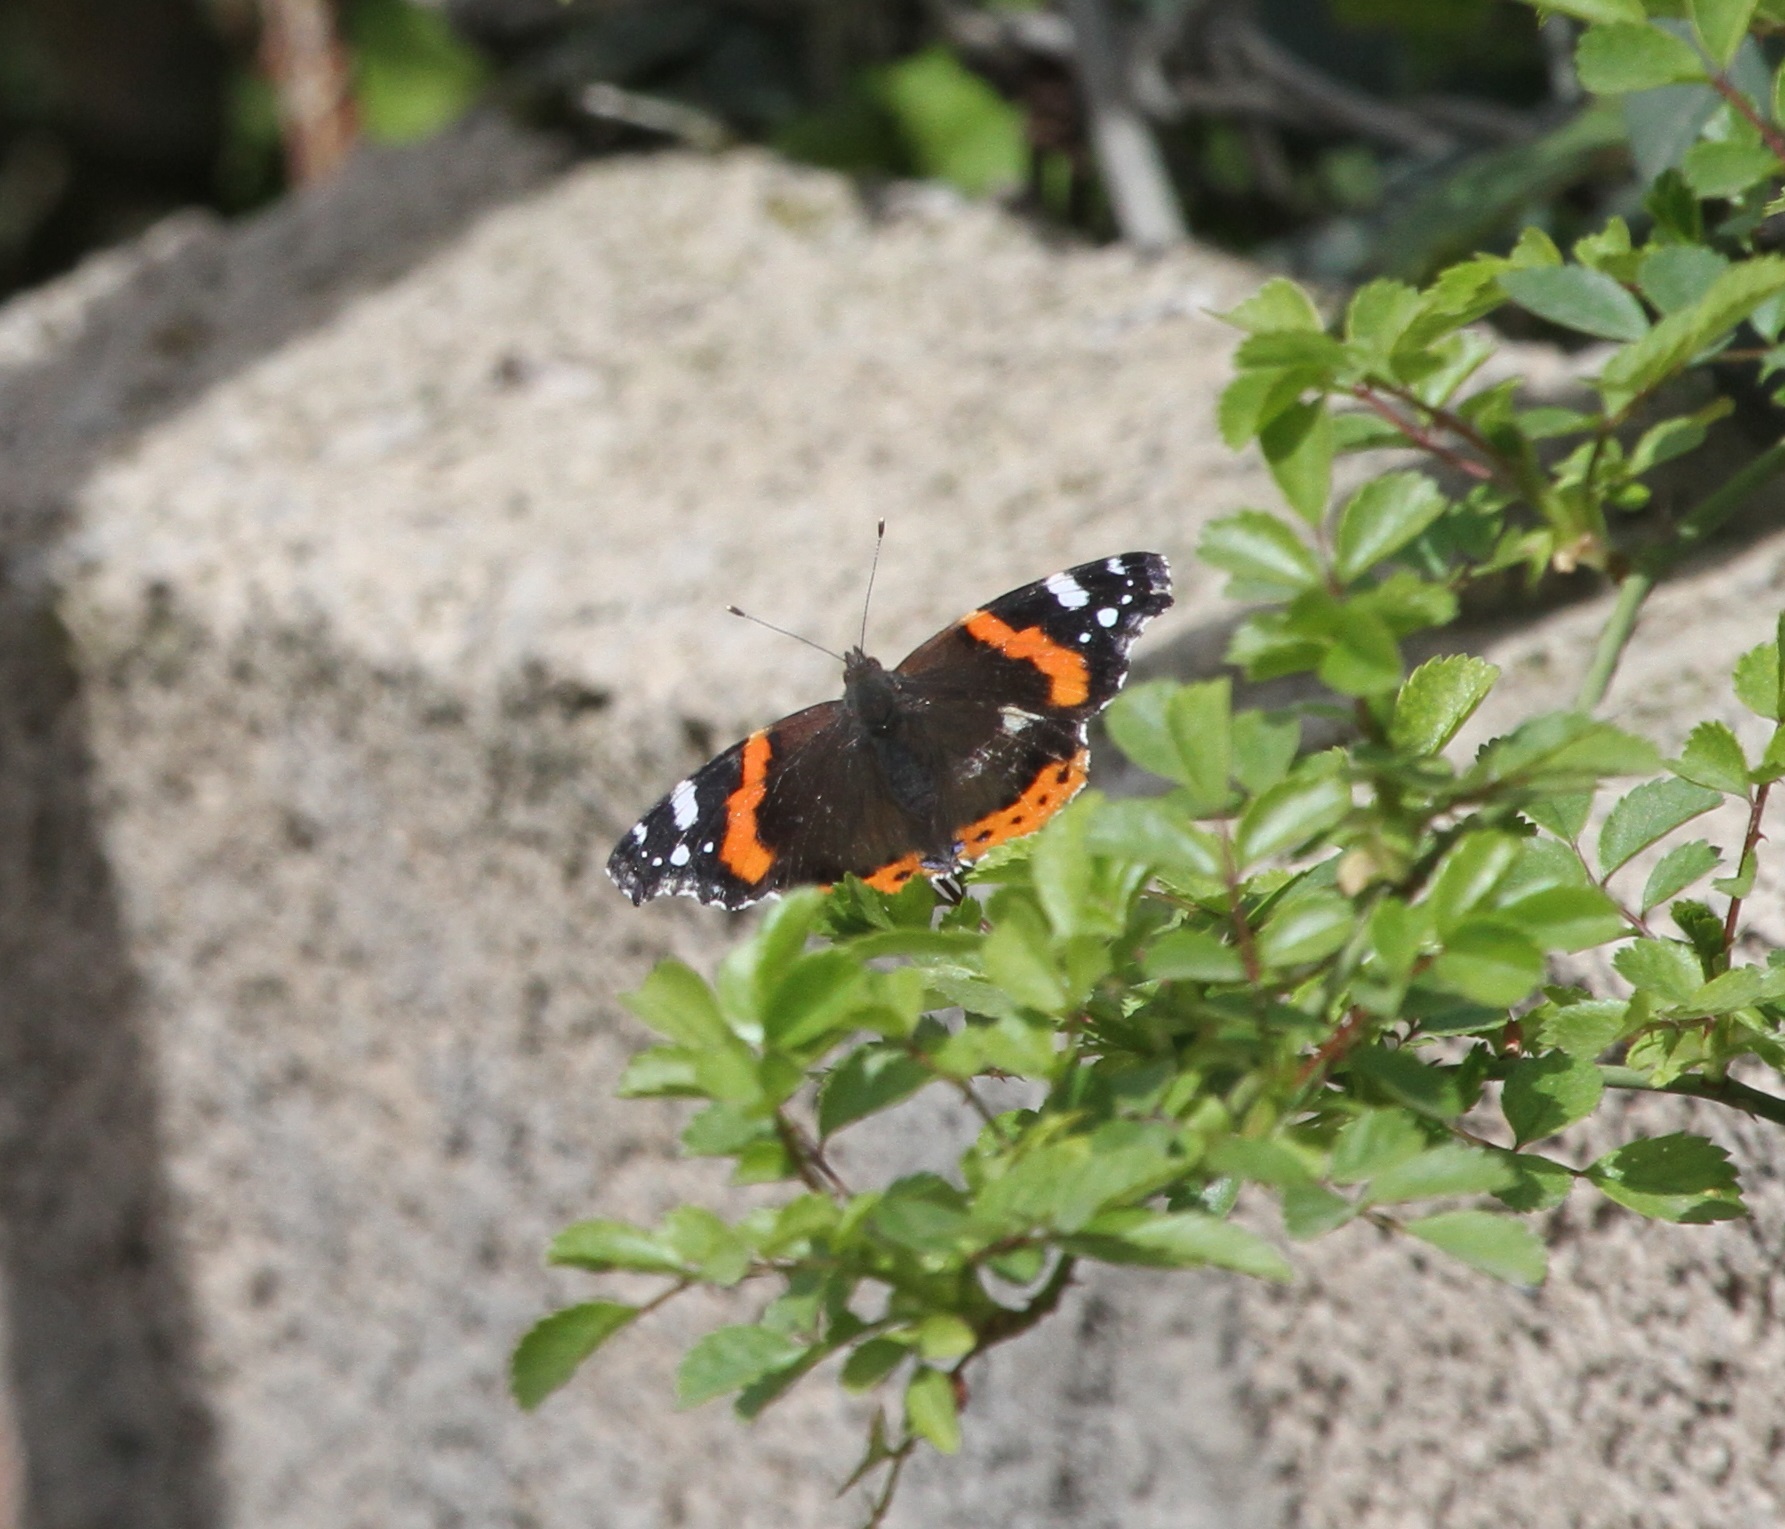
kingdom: Animalia
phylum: Arthropoda
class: Insecta
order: Lepidoptera
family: Nymphalidae
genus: Vanessa
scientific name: Vanessa atalanta
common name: Red admiral
